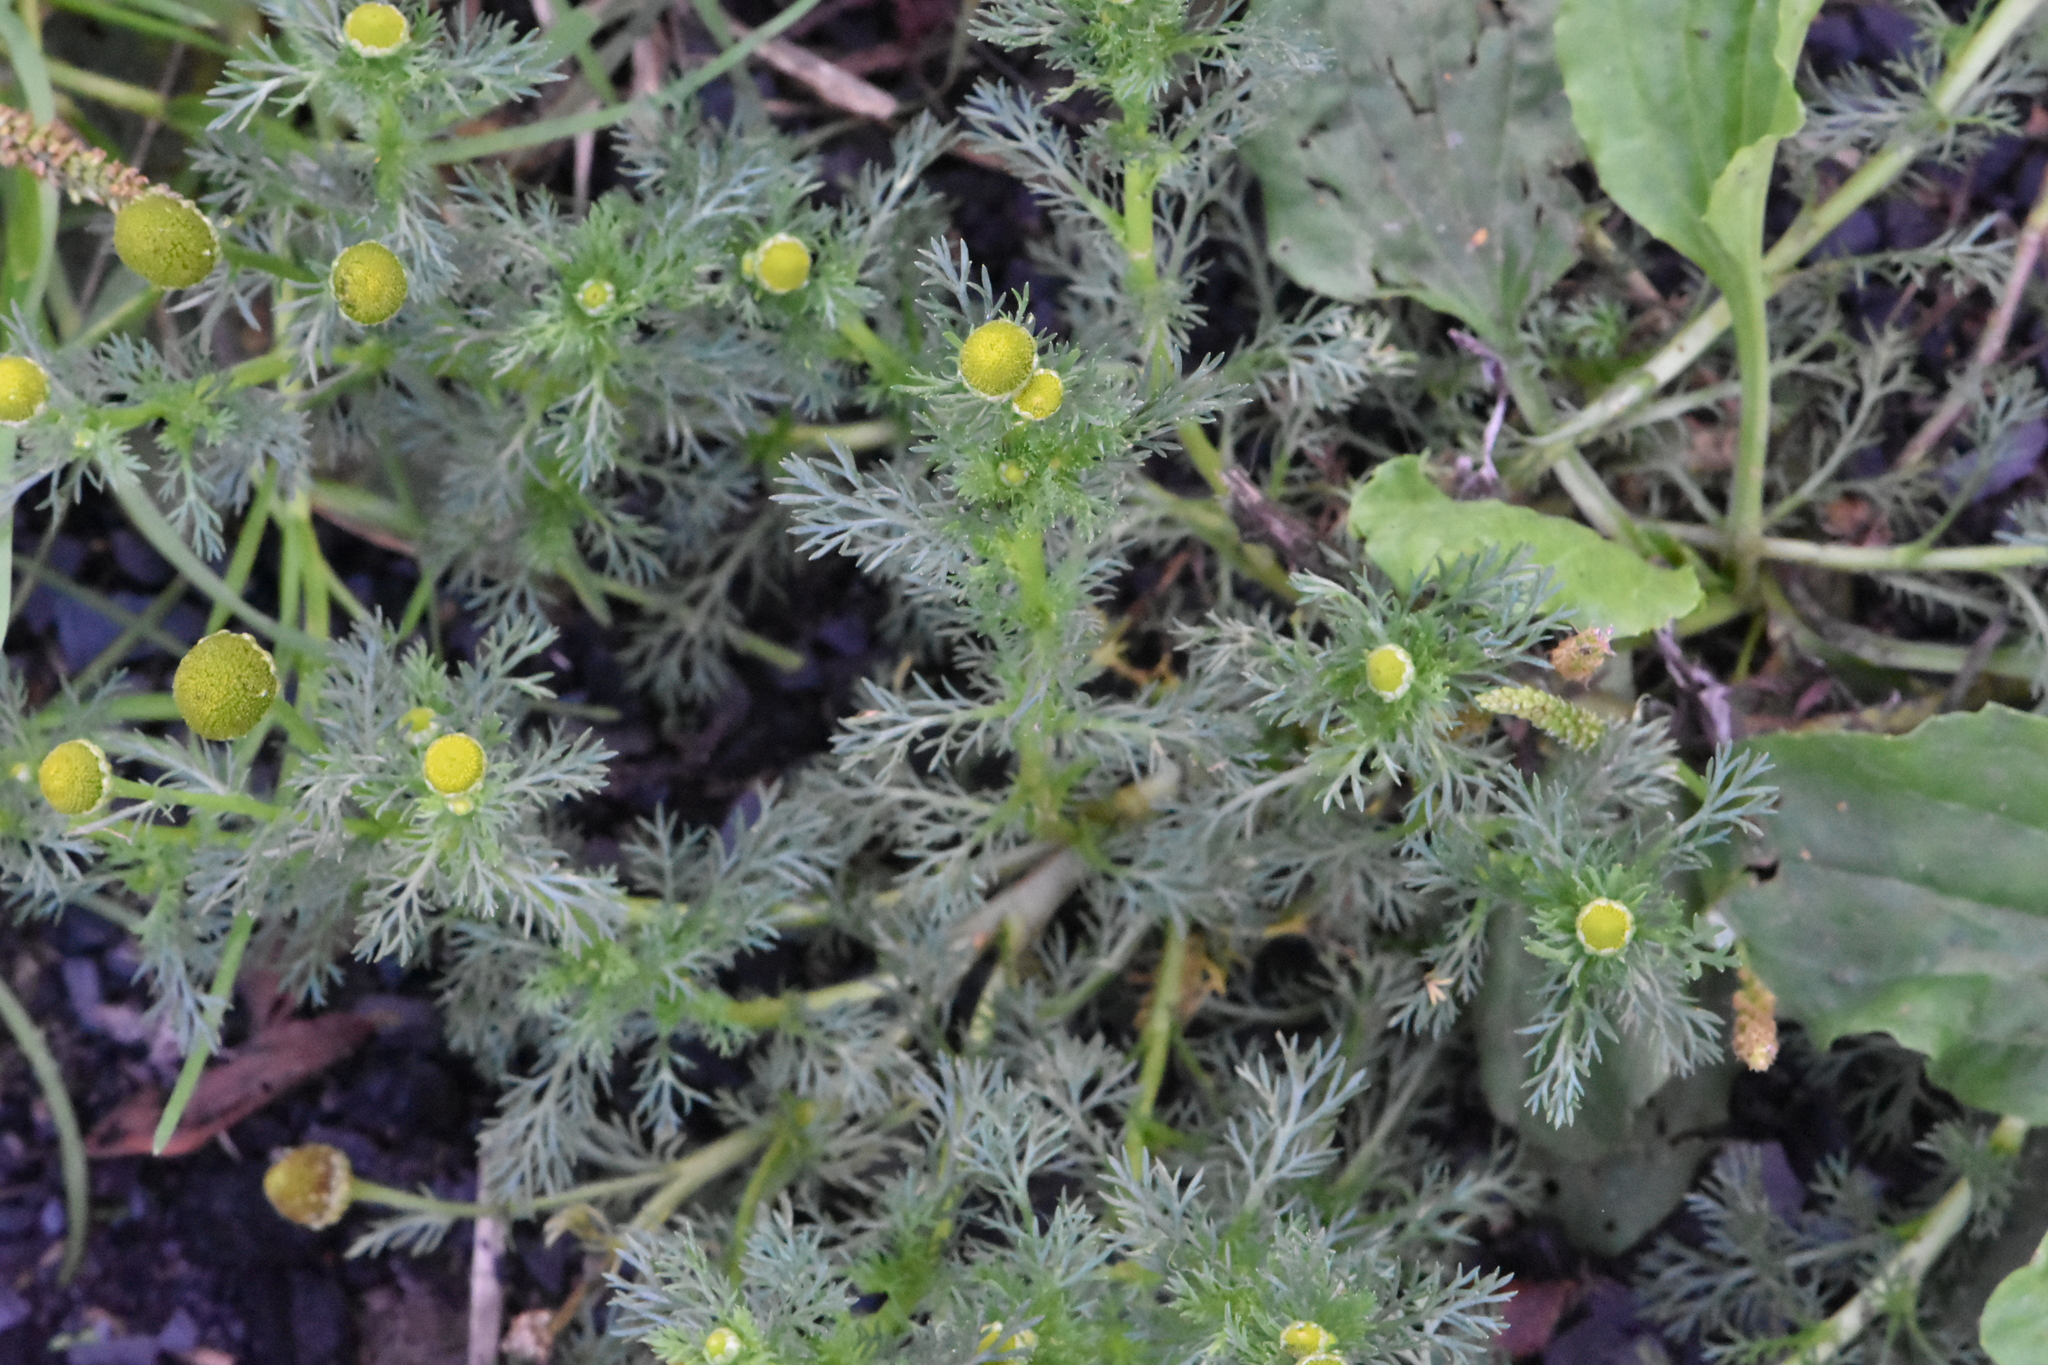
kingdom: Plantae
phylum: Tracheophyta
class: Magnoliopsida
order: Asterales
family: Asteraceae
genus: Matricaria
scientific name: Matricaria discoidea
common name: Disc mayweed
